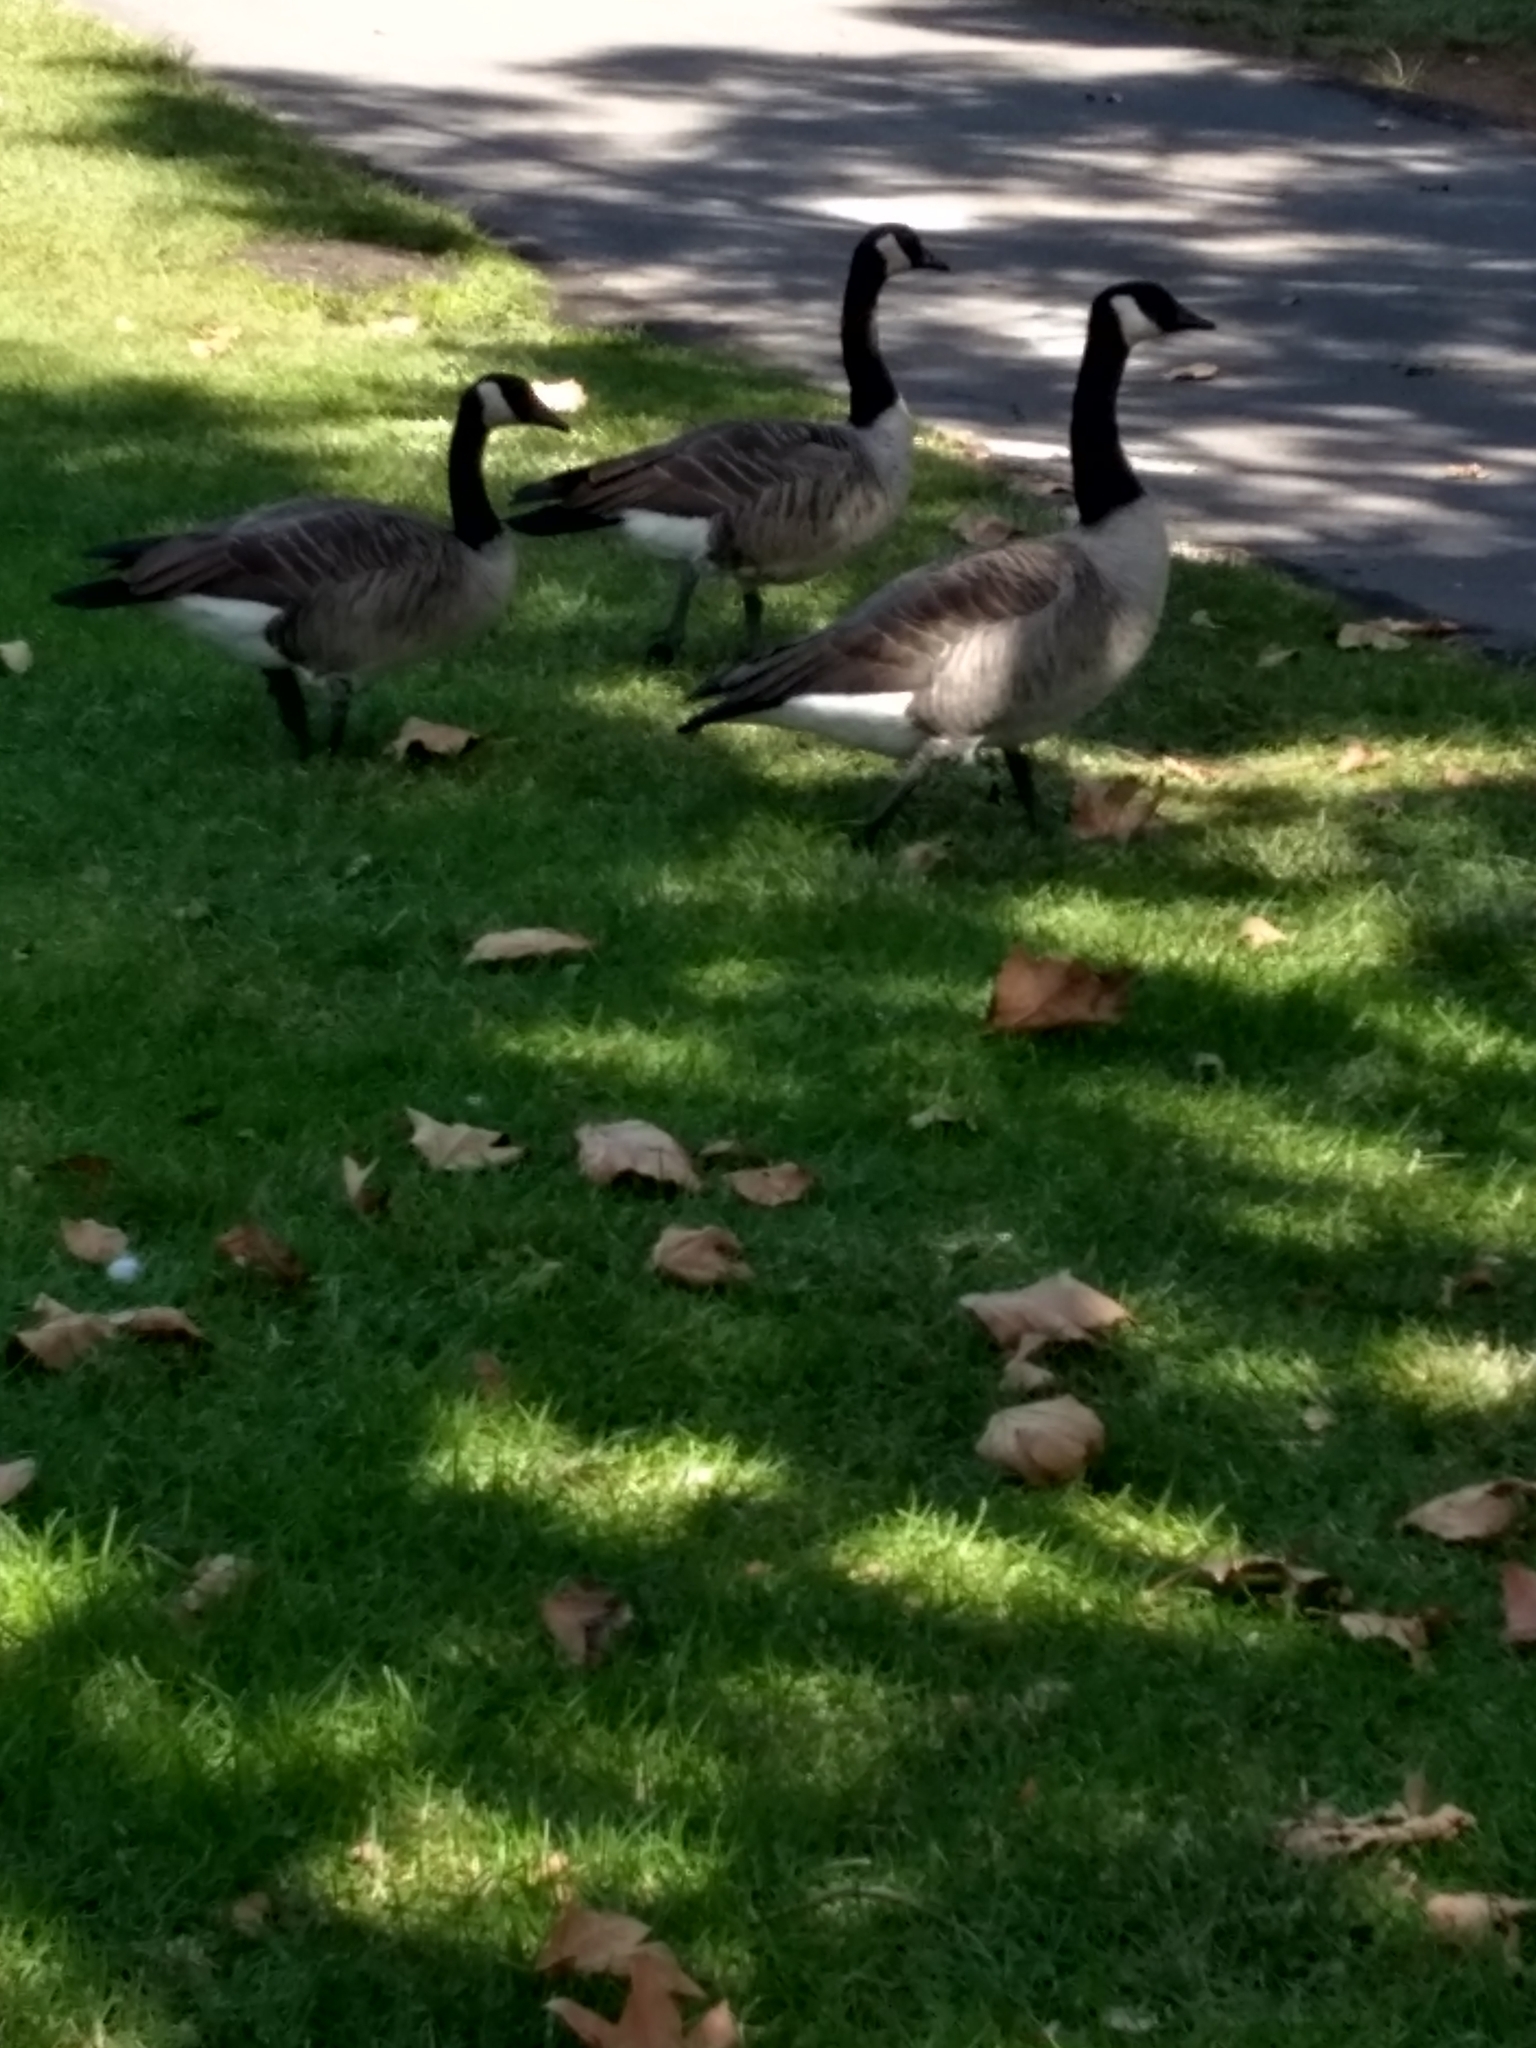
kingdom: Animalia
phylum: Chordata
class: Aves
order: Anseriformes
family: Anatidae
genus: Branta
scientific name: Branta canadensis
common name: Canada goose
